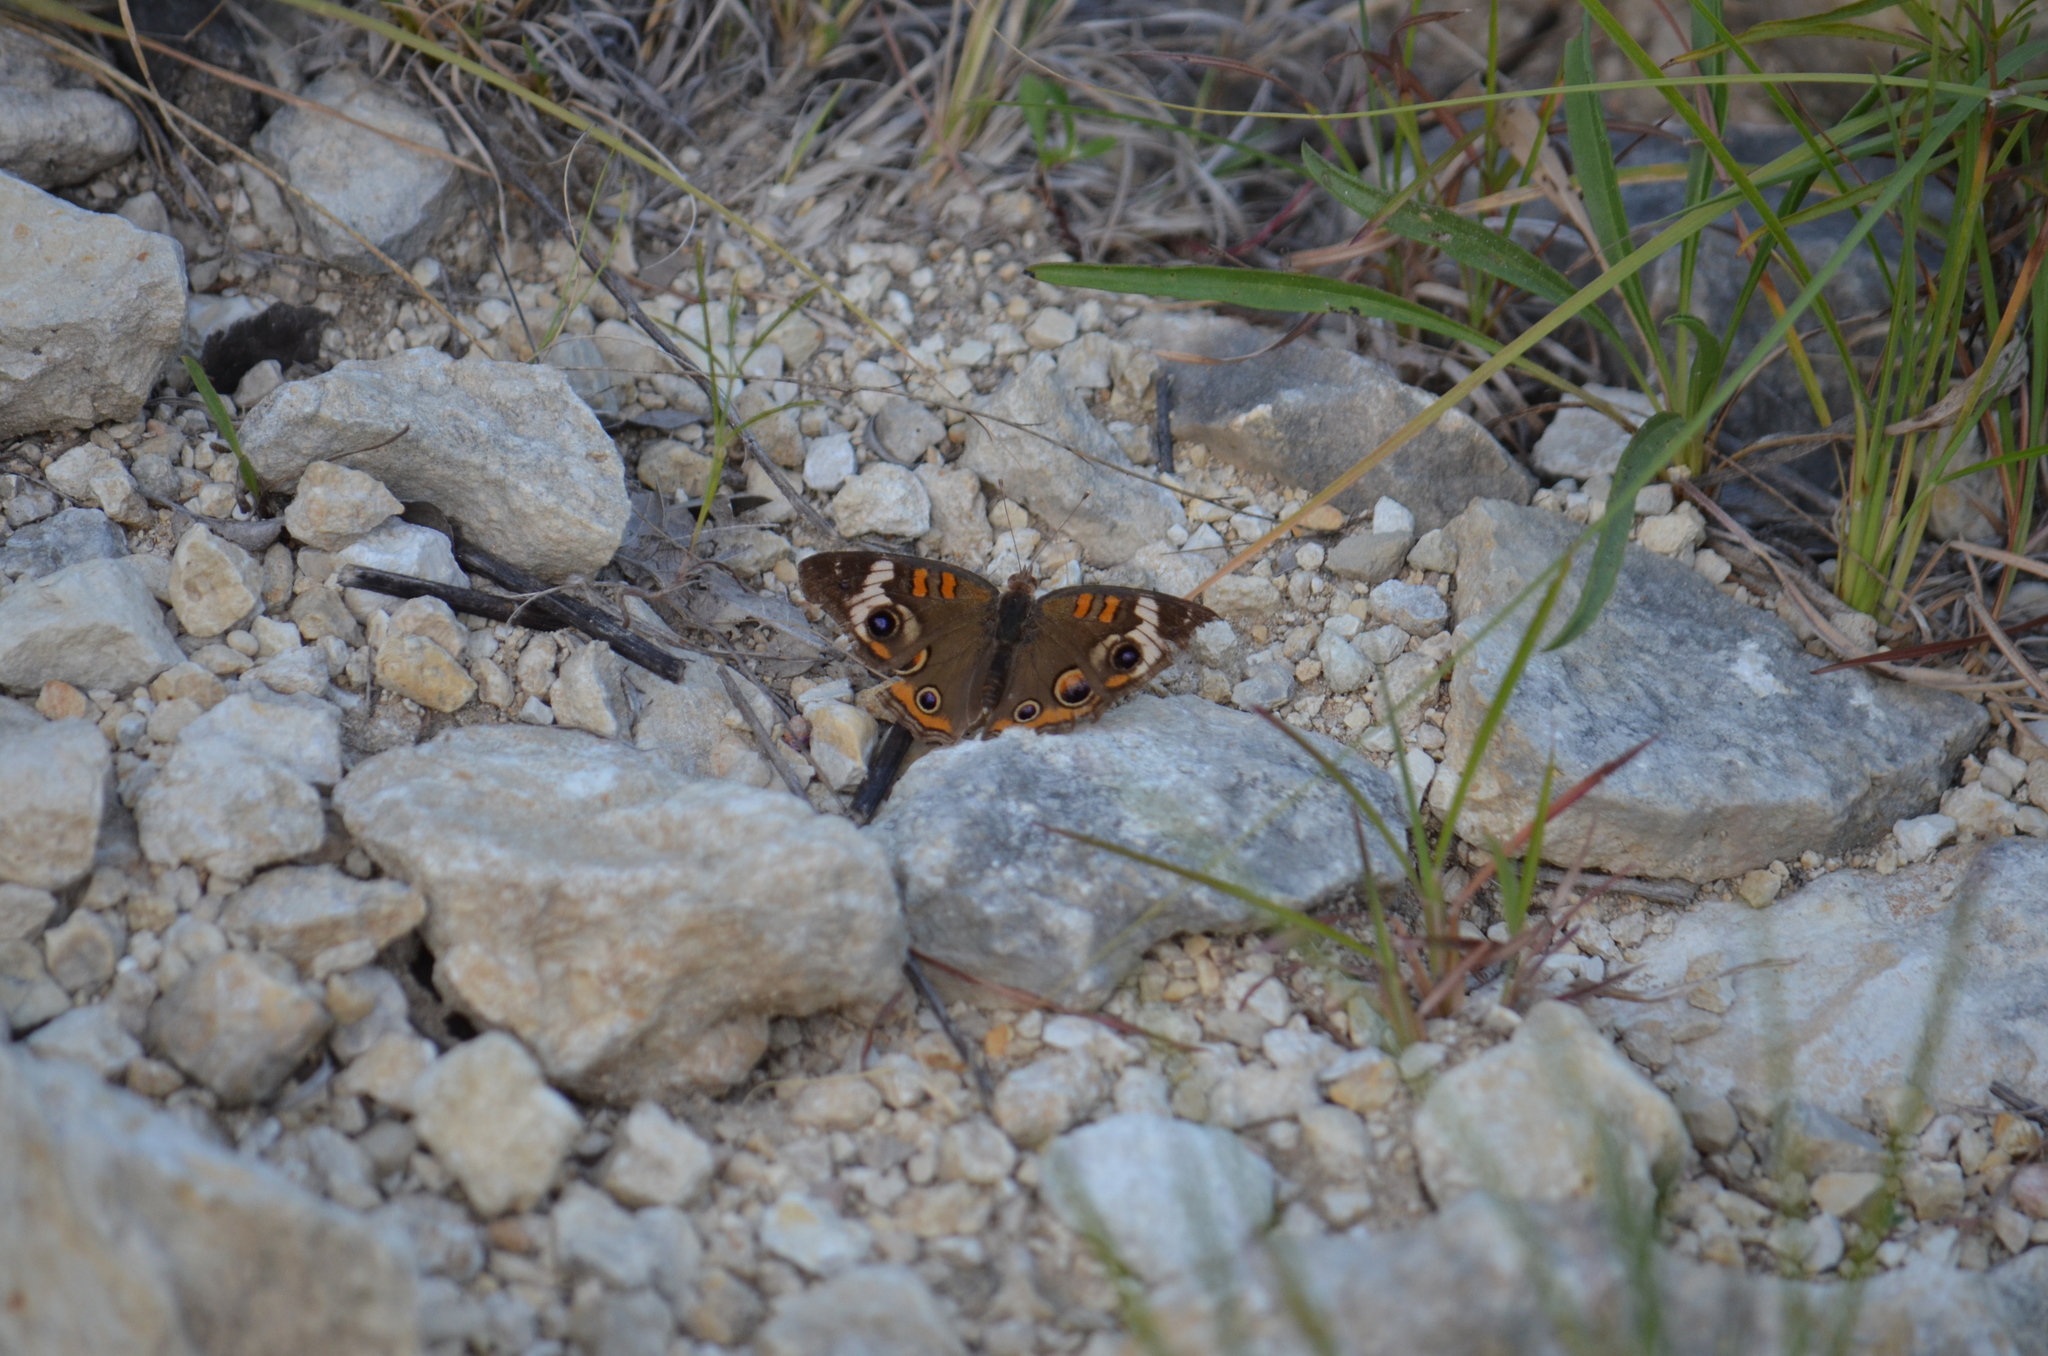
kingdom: Animalia
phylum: Arthropoda
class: Insecta
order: Lepidoptera
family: Nymphalidae
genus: Junonia
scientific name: Junonia coenia
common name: Common buckeye
